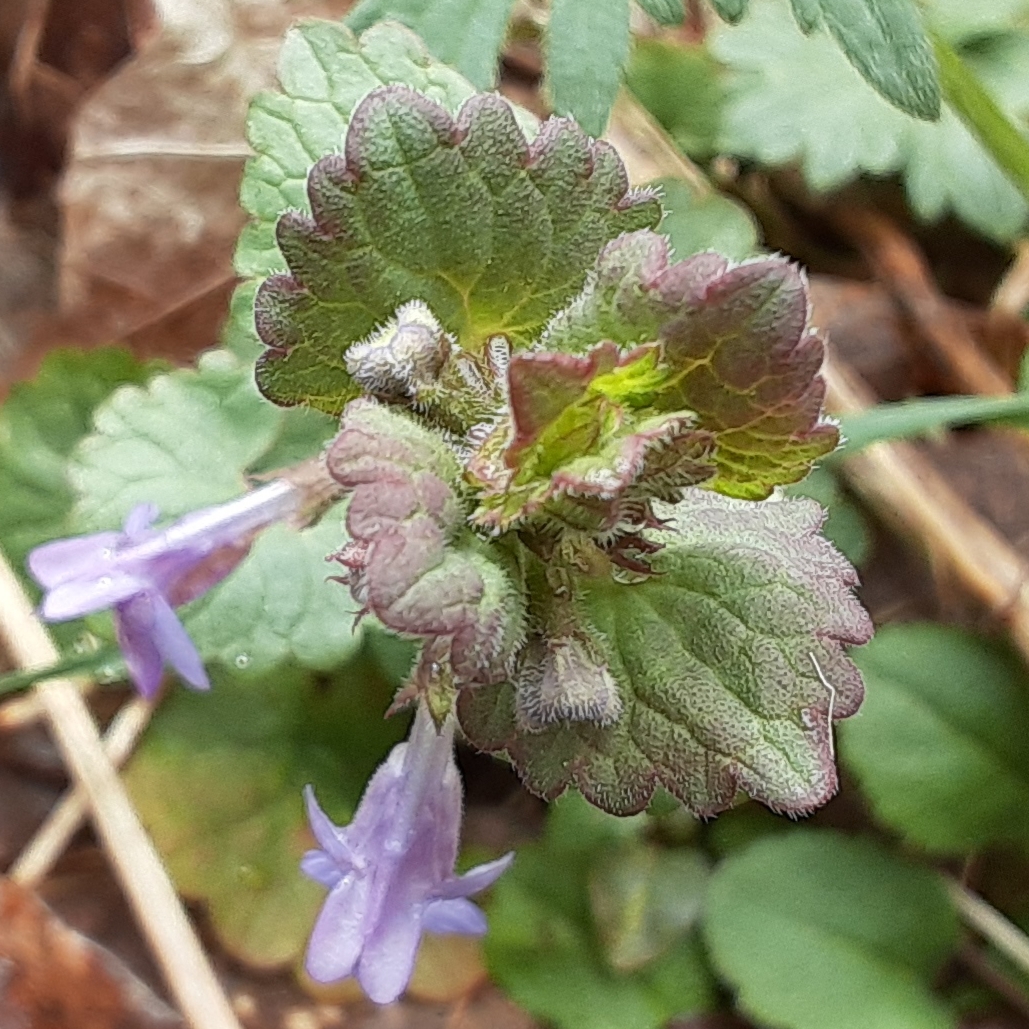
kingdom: Plantae
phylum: Tracheophyta
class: Magnoliopsida
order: Lamiales
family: Lamiaceae
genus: Glechoma
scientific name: Glechoma hederacea
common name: Ground ivy
